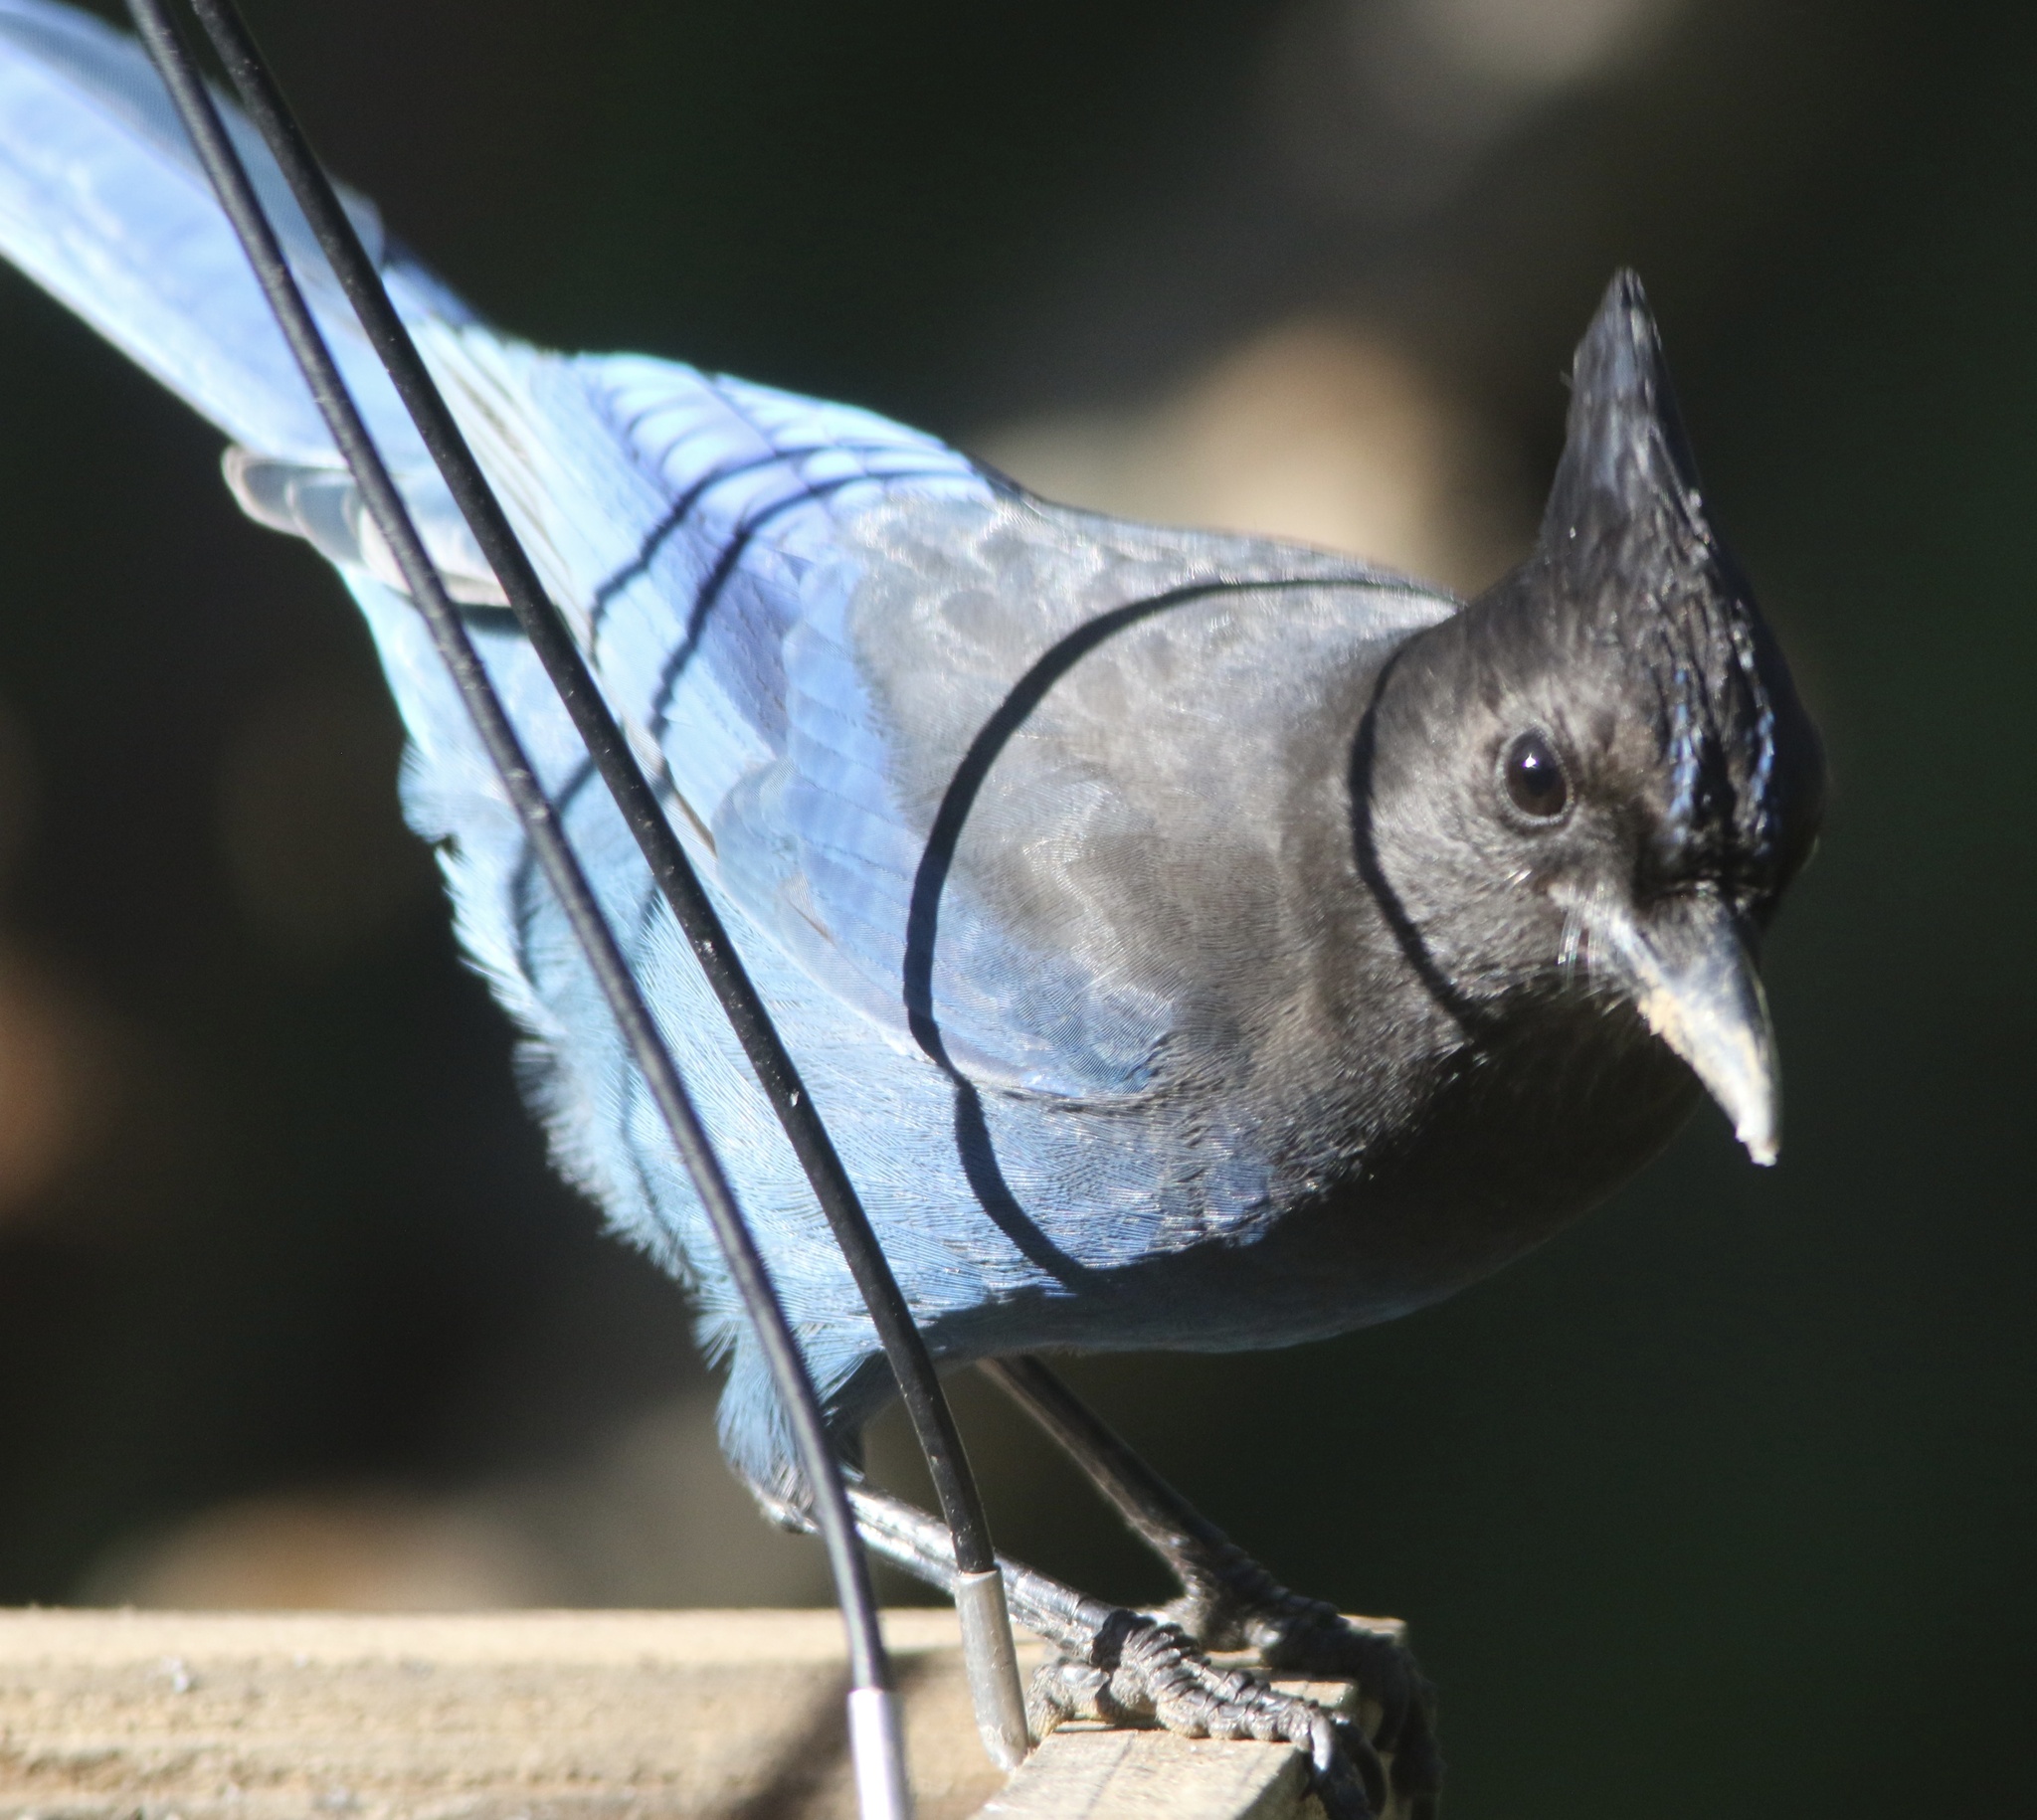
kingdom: Animalia
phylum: Chordata
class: Aves
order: Passeriformes
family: Corvidae
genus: Cyanocitta
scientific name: Cyanocitta stelleri
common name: Steller's jay
